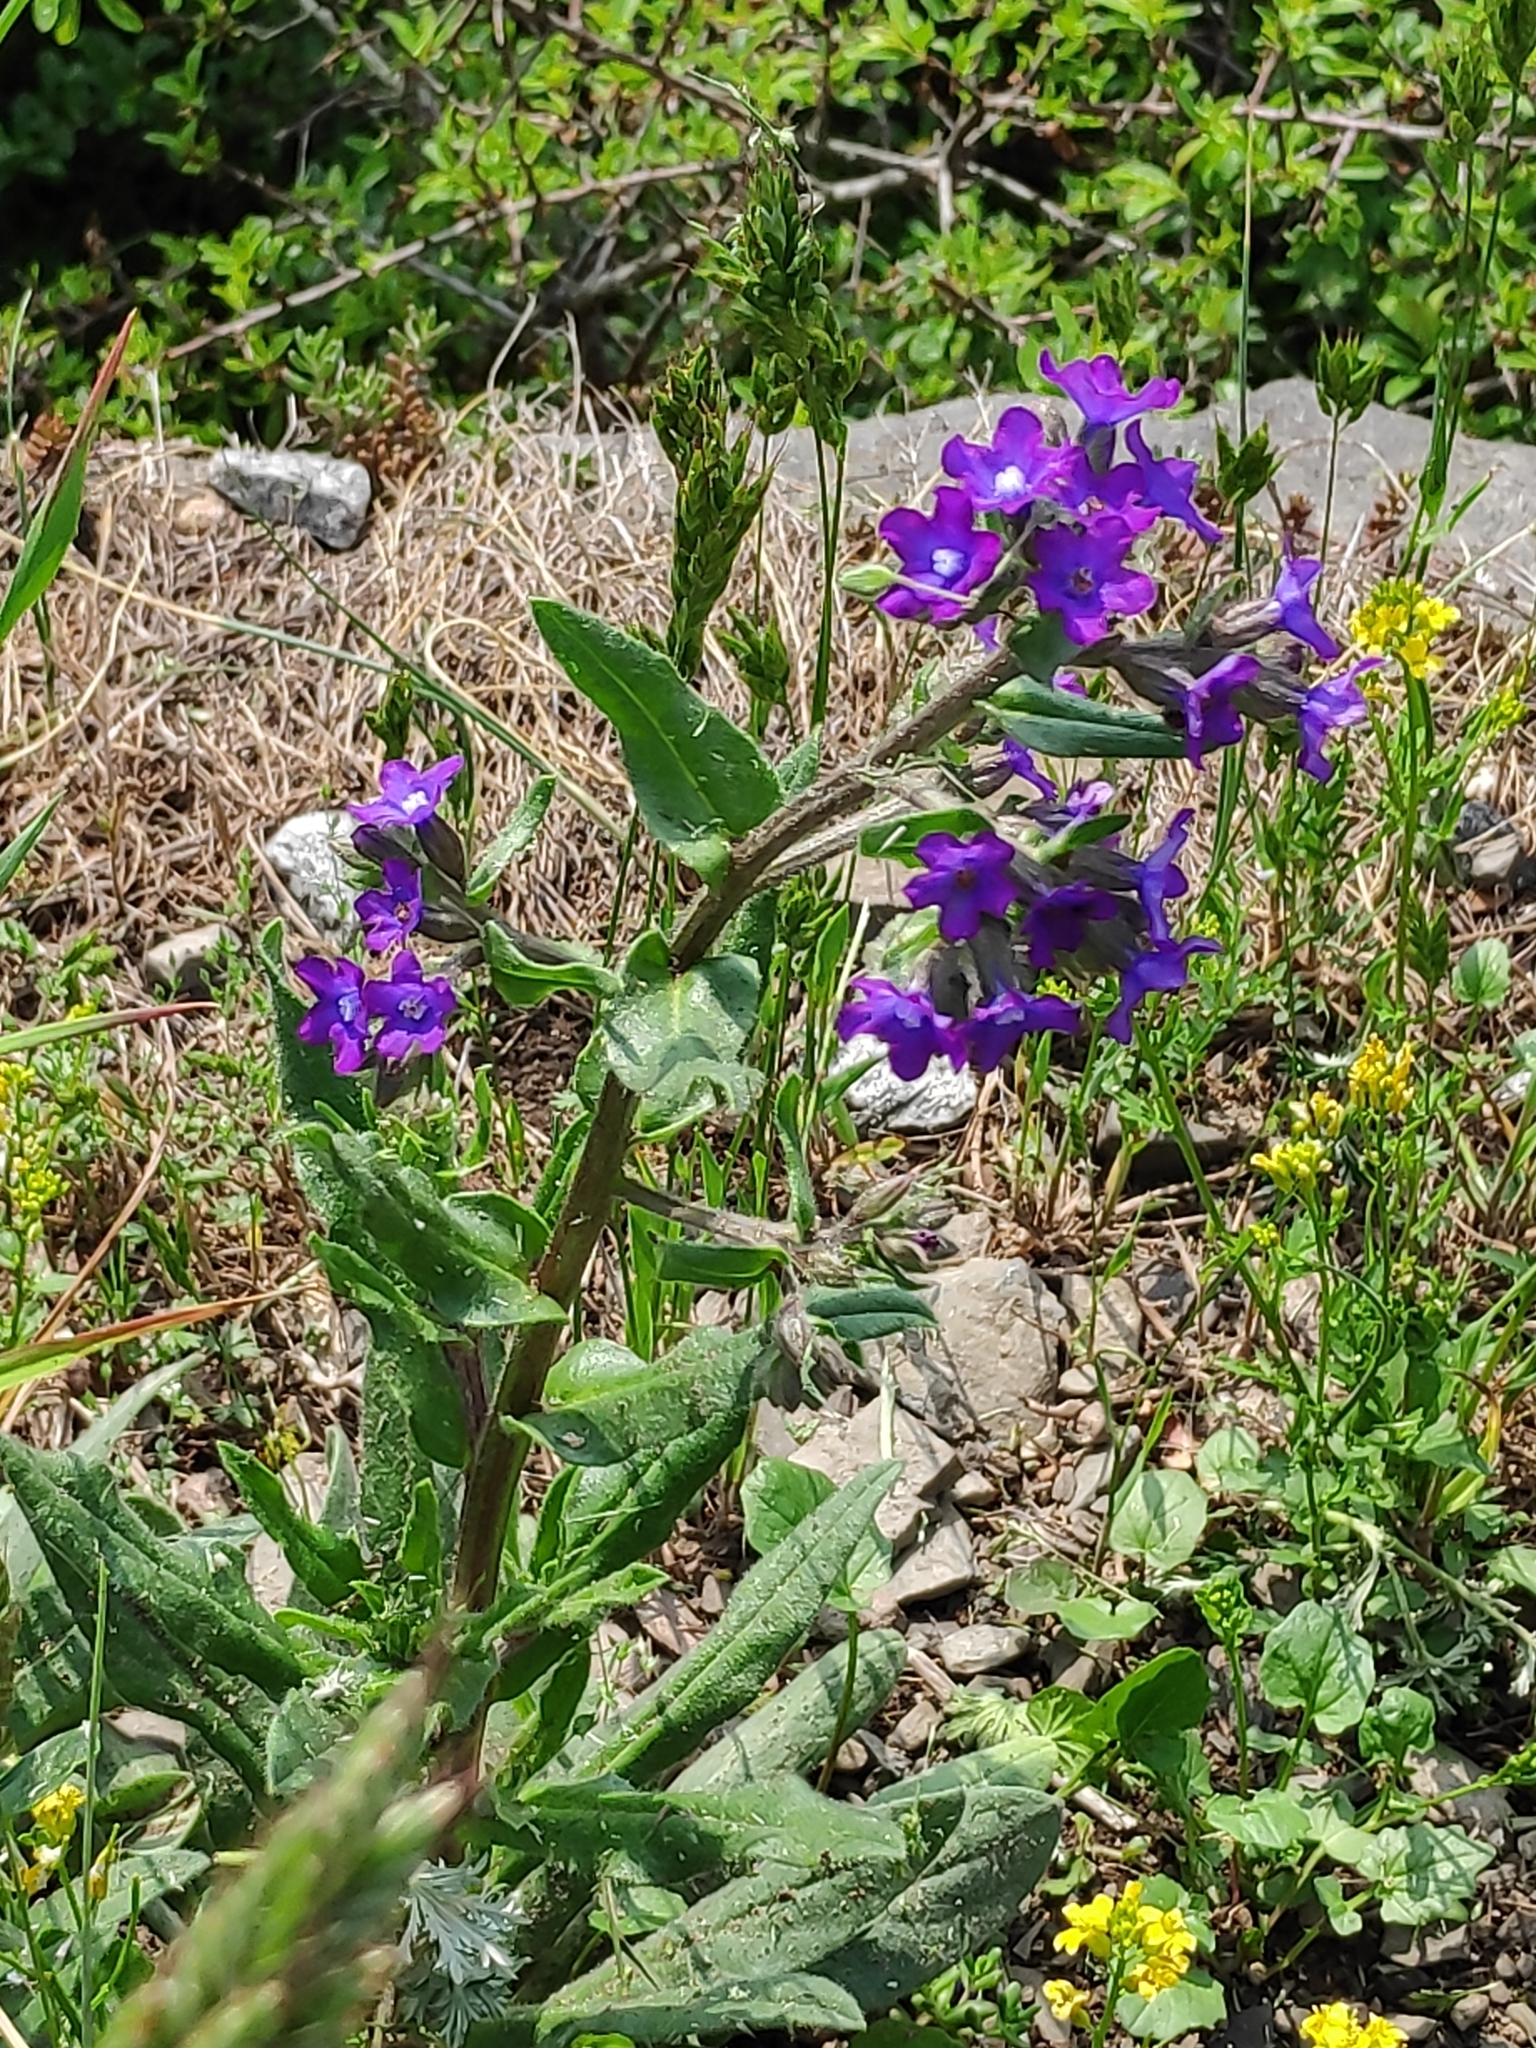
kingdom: Plantae
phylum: Tracheophyta
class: Magnoliopsida
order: Boraginales
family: Boraginaceae
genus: Anchusa
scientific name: Anchusa officinalis
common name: Alkanet
